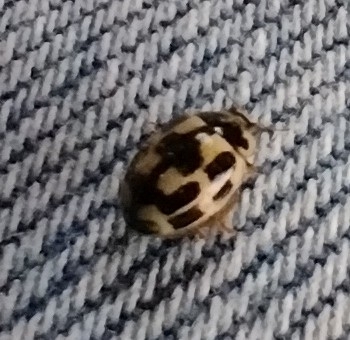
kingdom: Animalia
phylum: Arthropoda
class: Insecta
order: Coleoptera
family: Coccinellidae
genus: Propylaea
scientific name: Propylaea quatuordecimpunctata
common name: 14-spotted ladybird beetle
